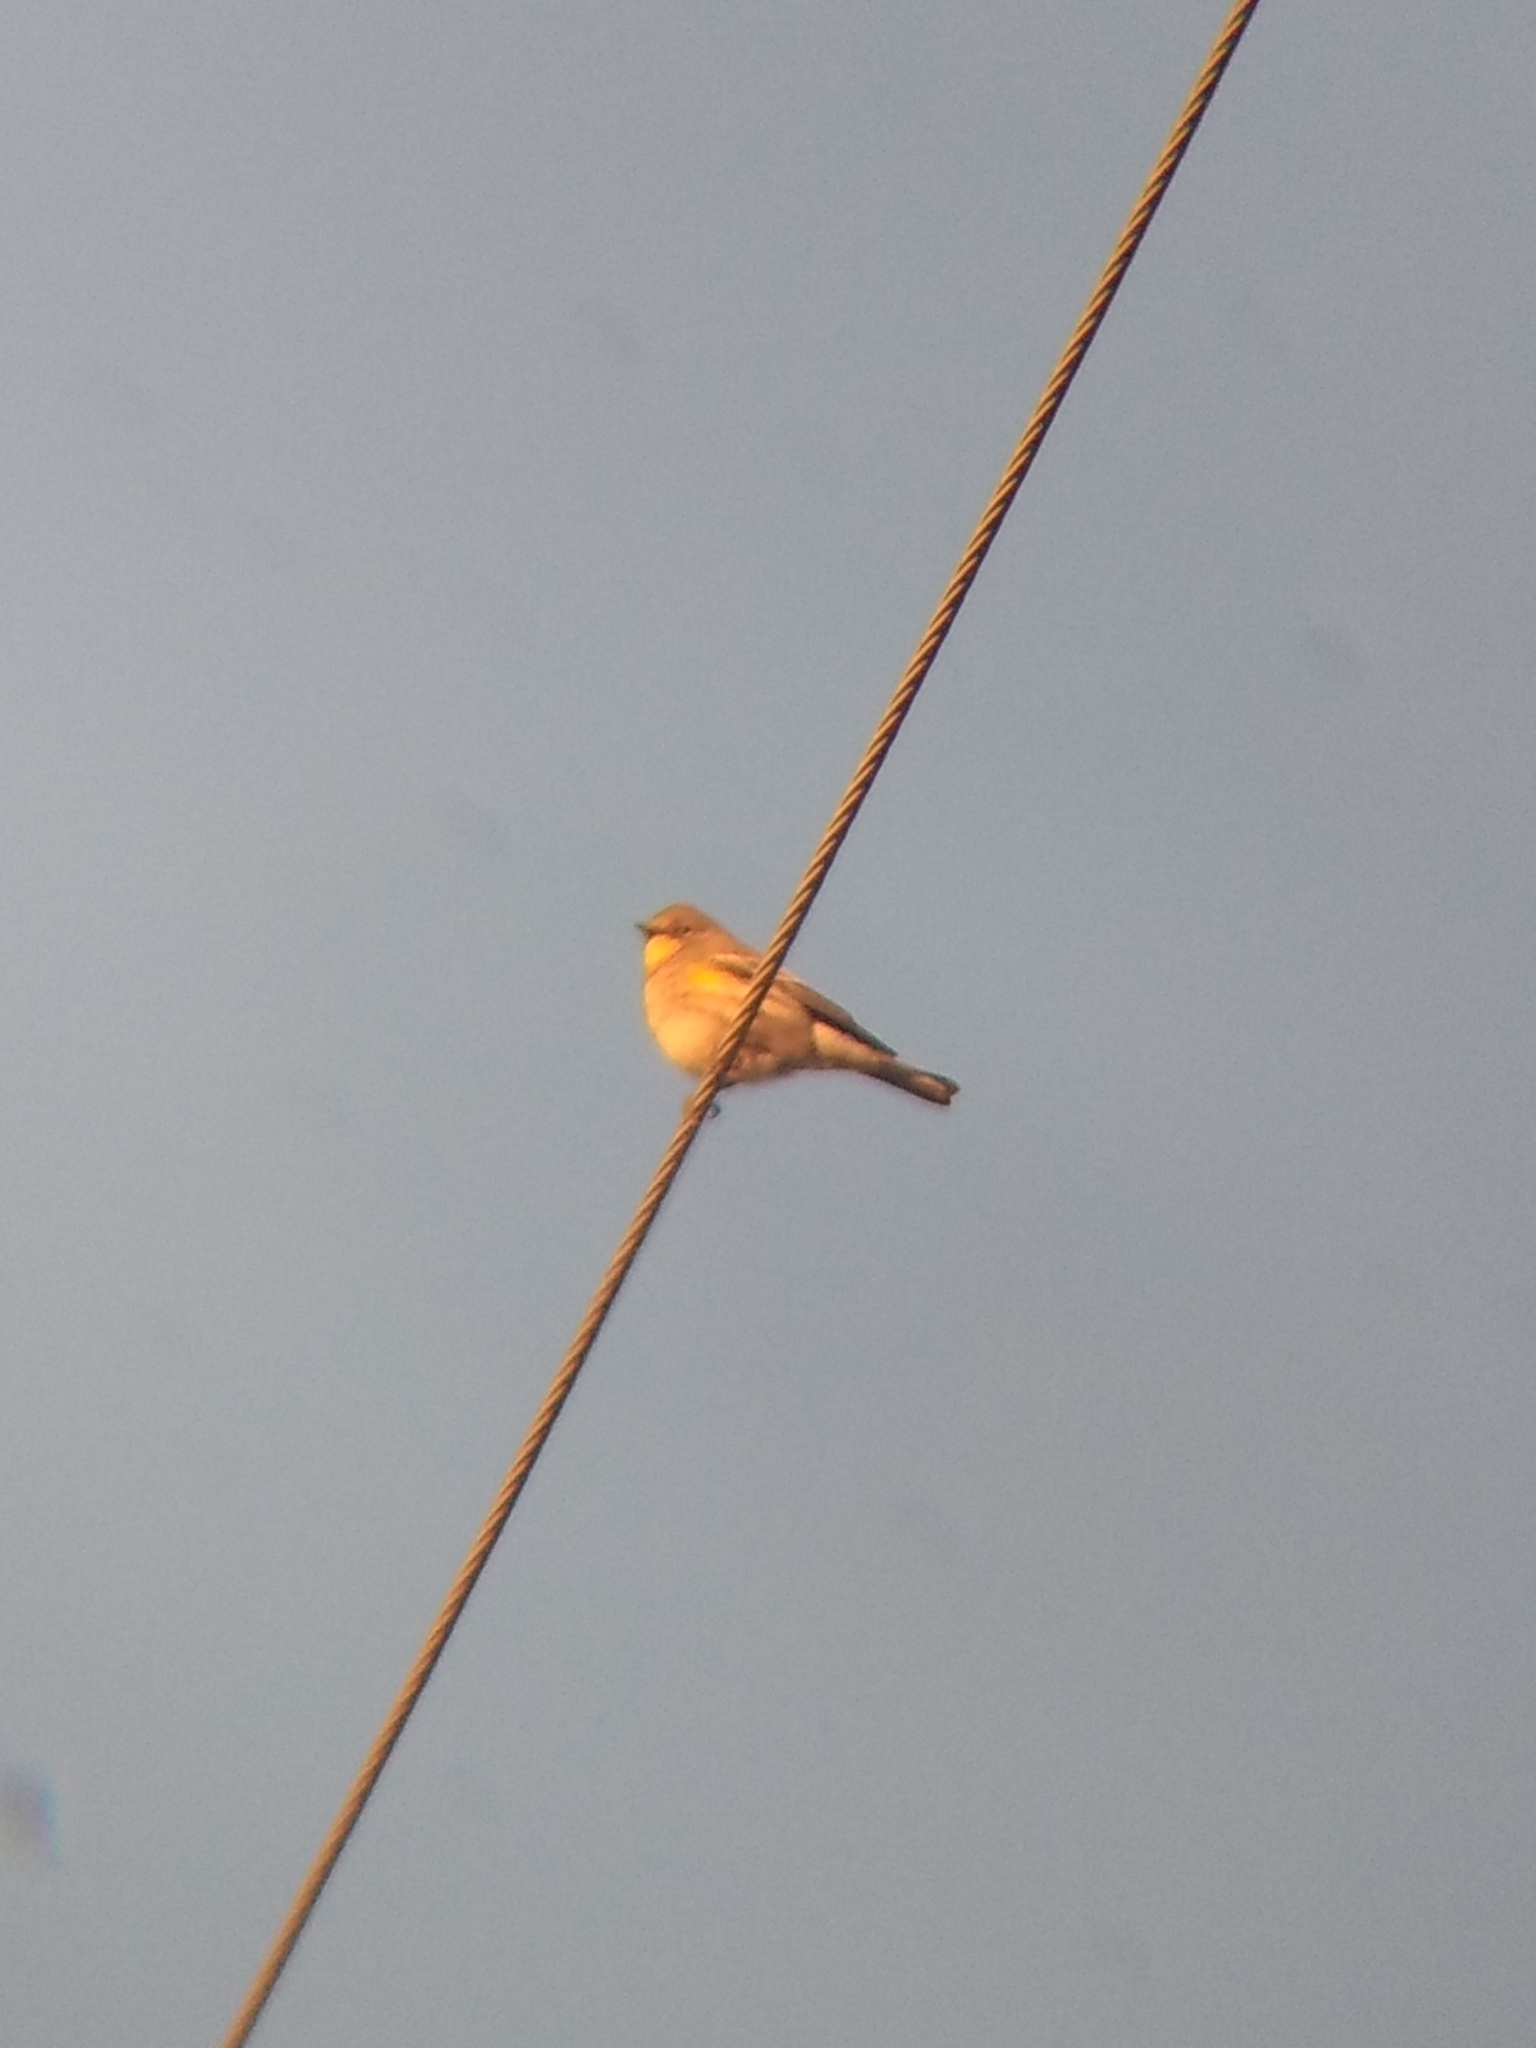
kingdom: Animalia
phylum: Chordata
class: Aves
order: Passeriformes
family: Parulidae
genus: Setophaga
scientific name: Setophaga coronata
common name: Myrtle warbler
